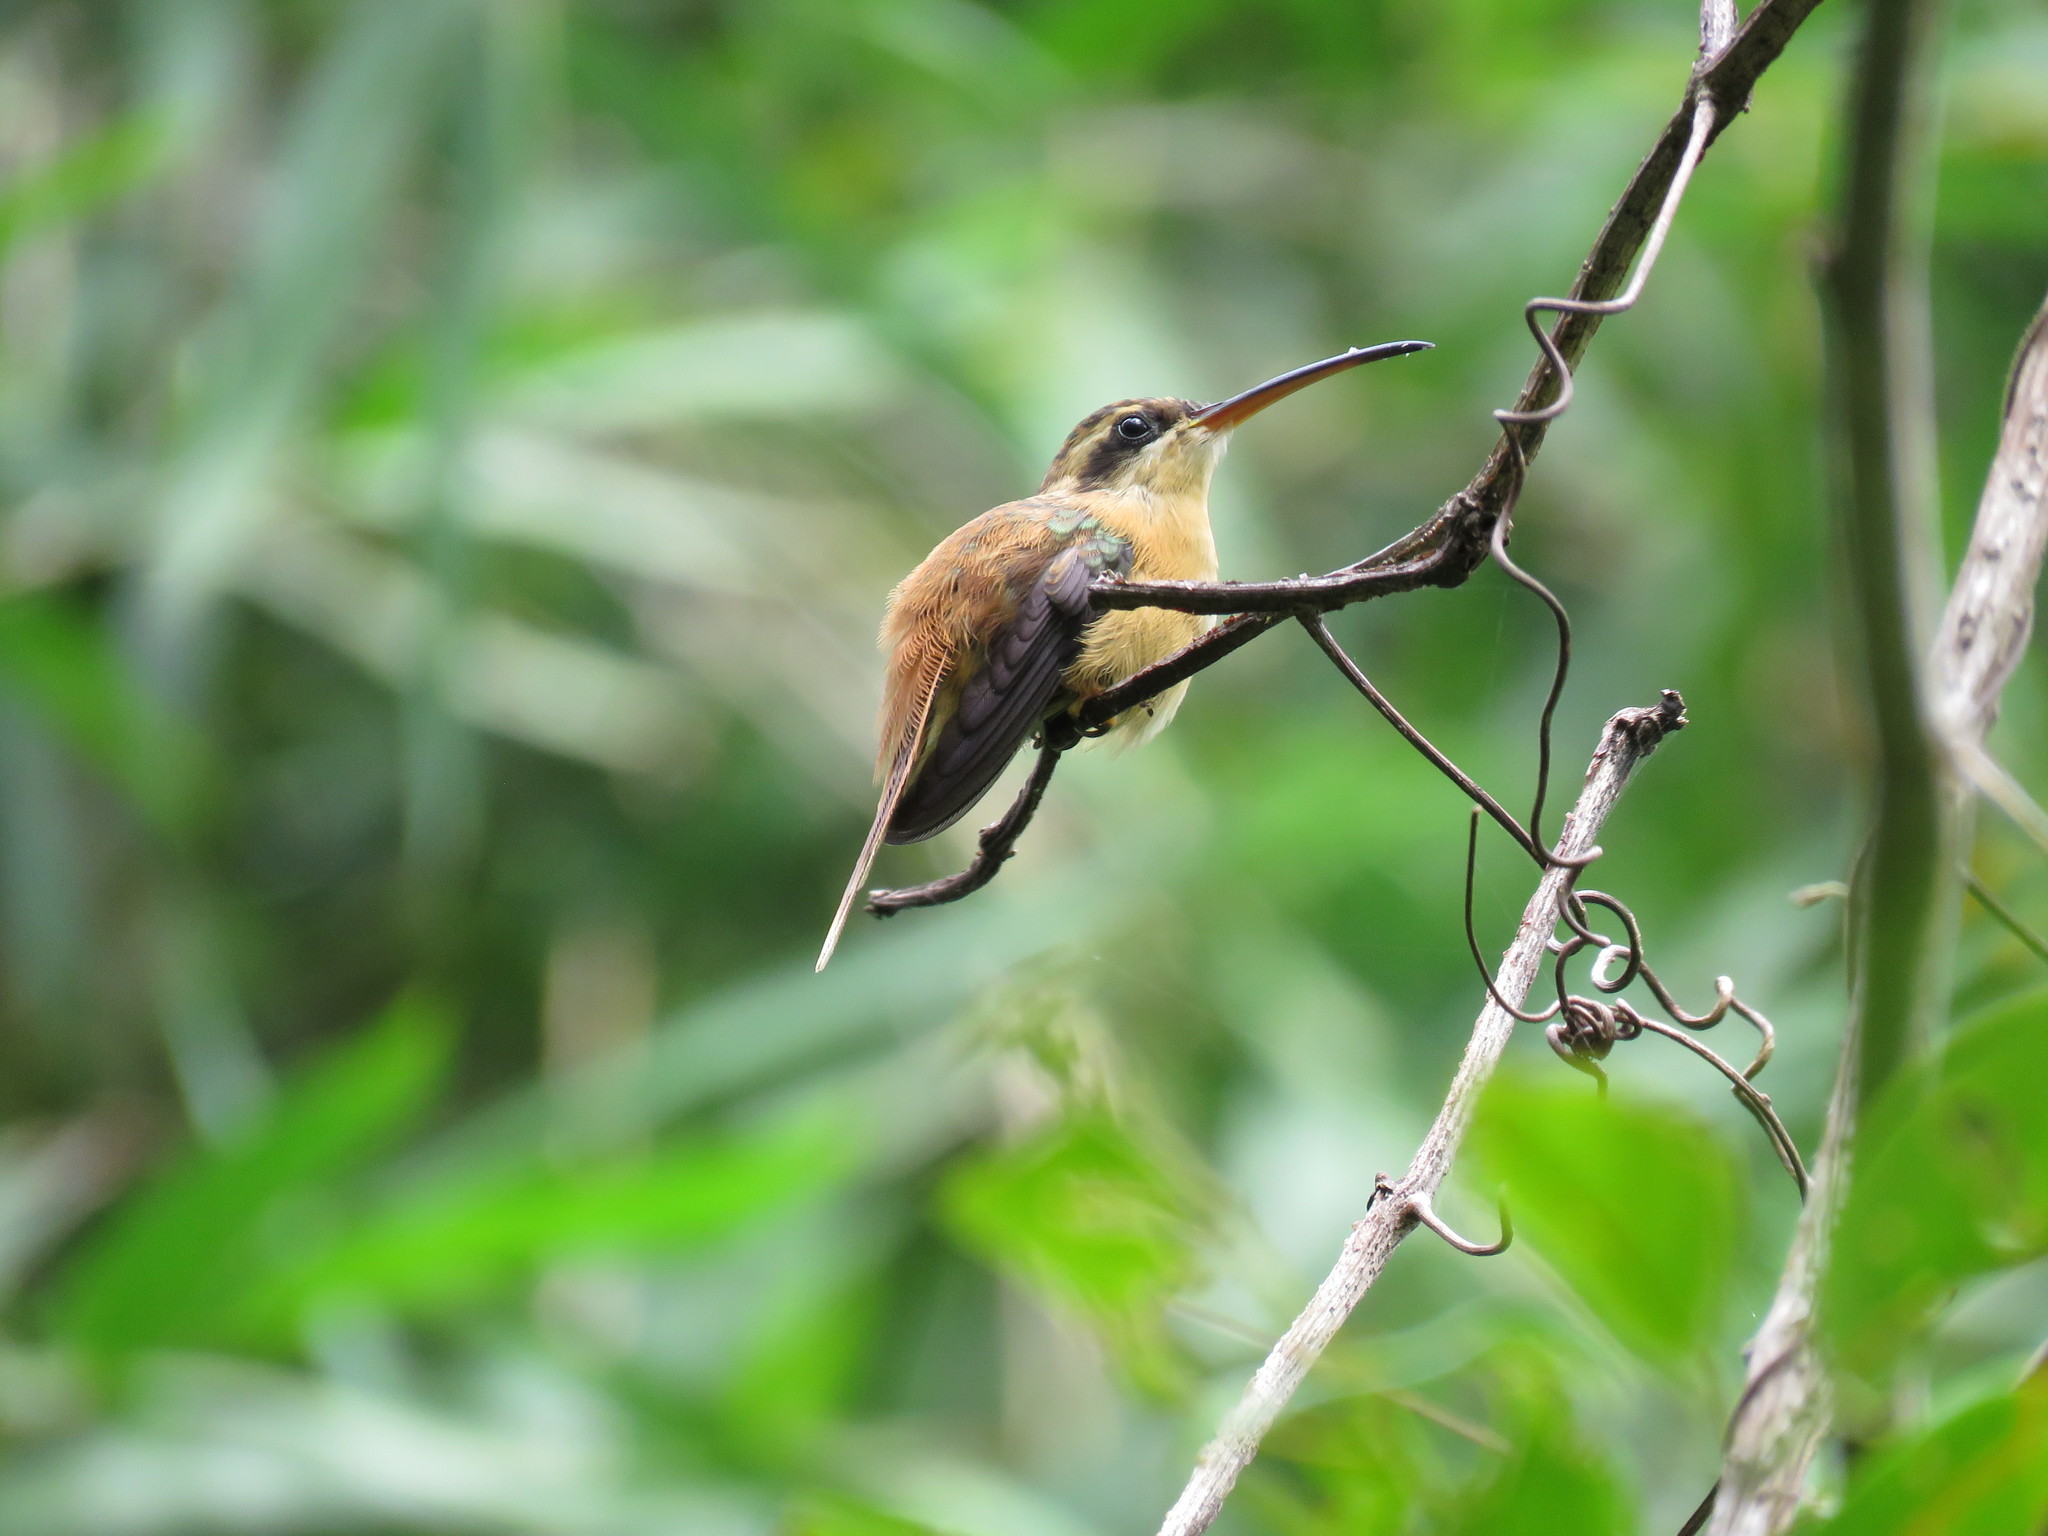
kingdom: Animalia
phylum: Chordata
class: Aves
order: Apodiformes
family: Trochilidae
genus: Phaethornis
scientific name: Phaethornis ruber
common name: Reddish hermit
